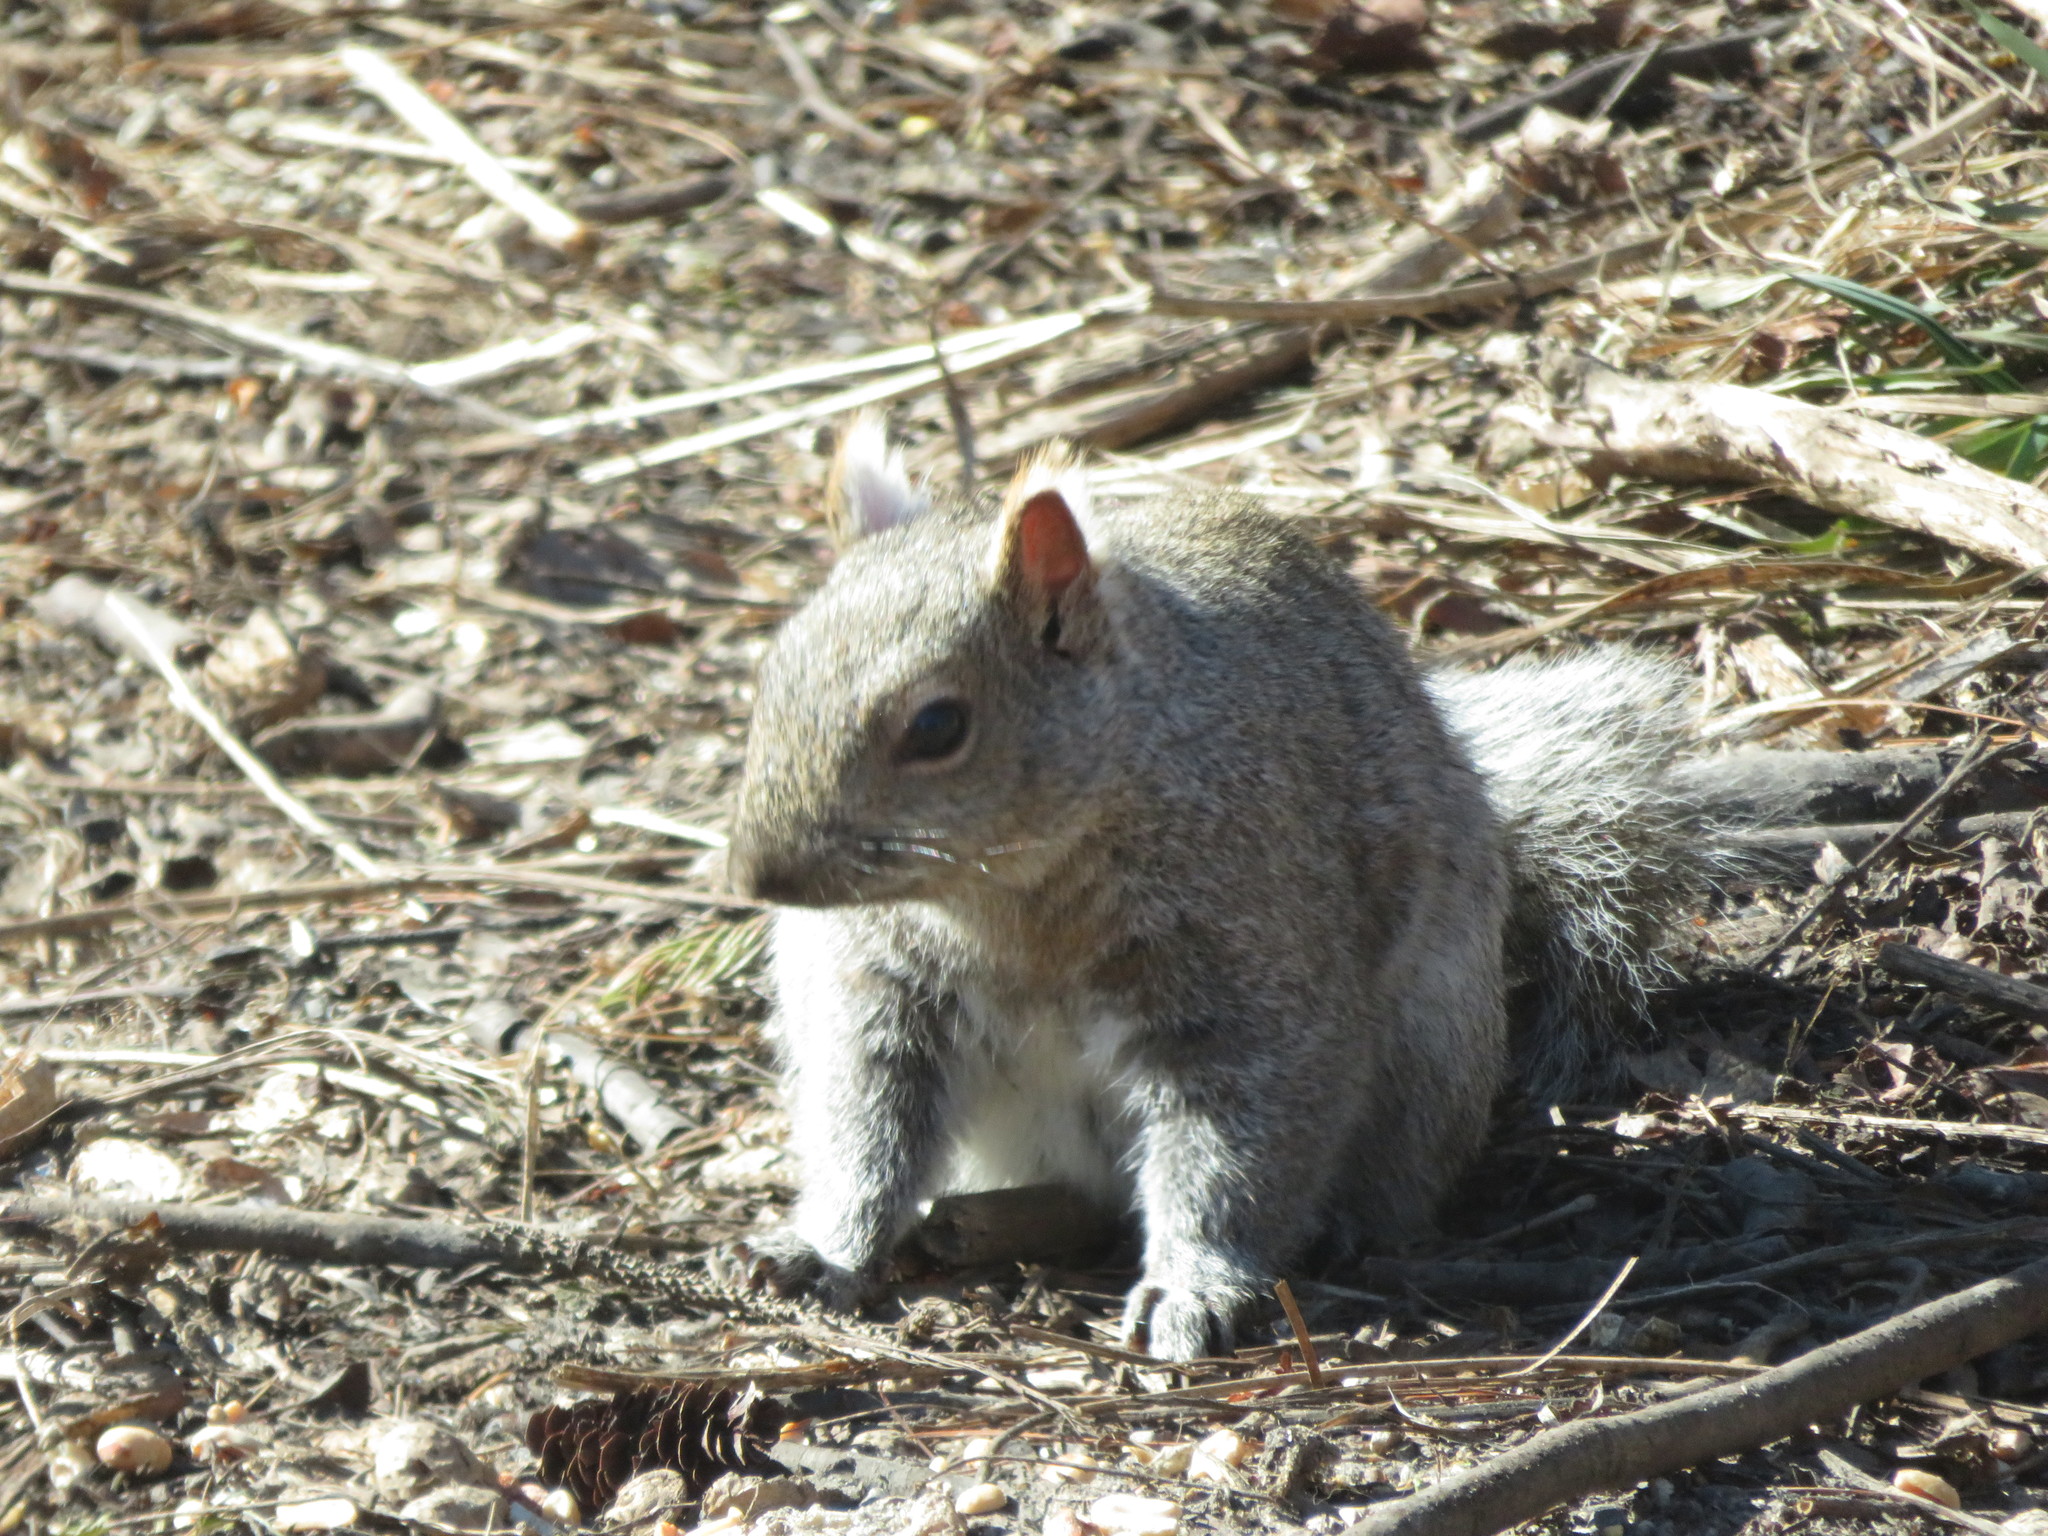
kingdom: Animalia
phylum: Chordata
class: Mammalia
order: Rodentia
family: Sciuridae
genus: Sciurus
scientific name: Sciurus carolinensis
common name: Eastern gray squirrel
